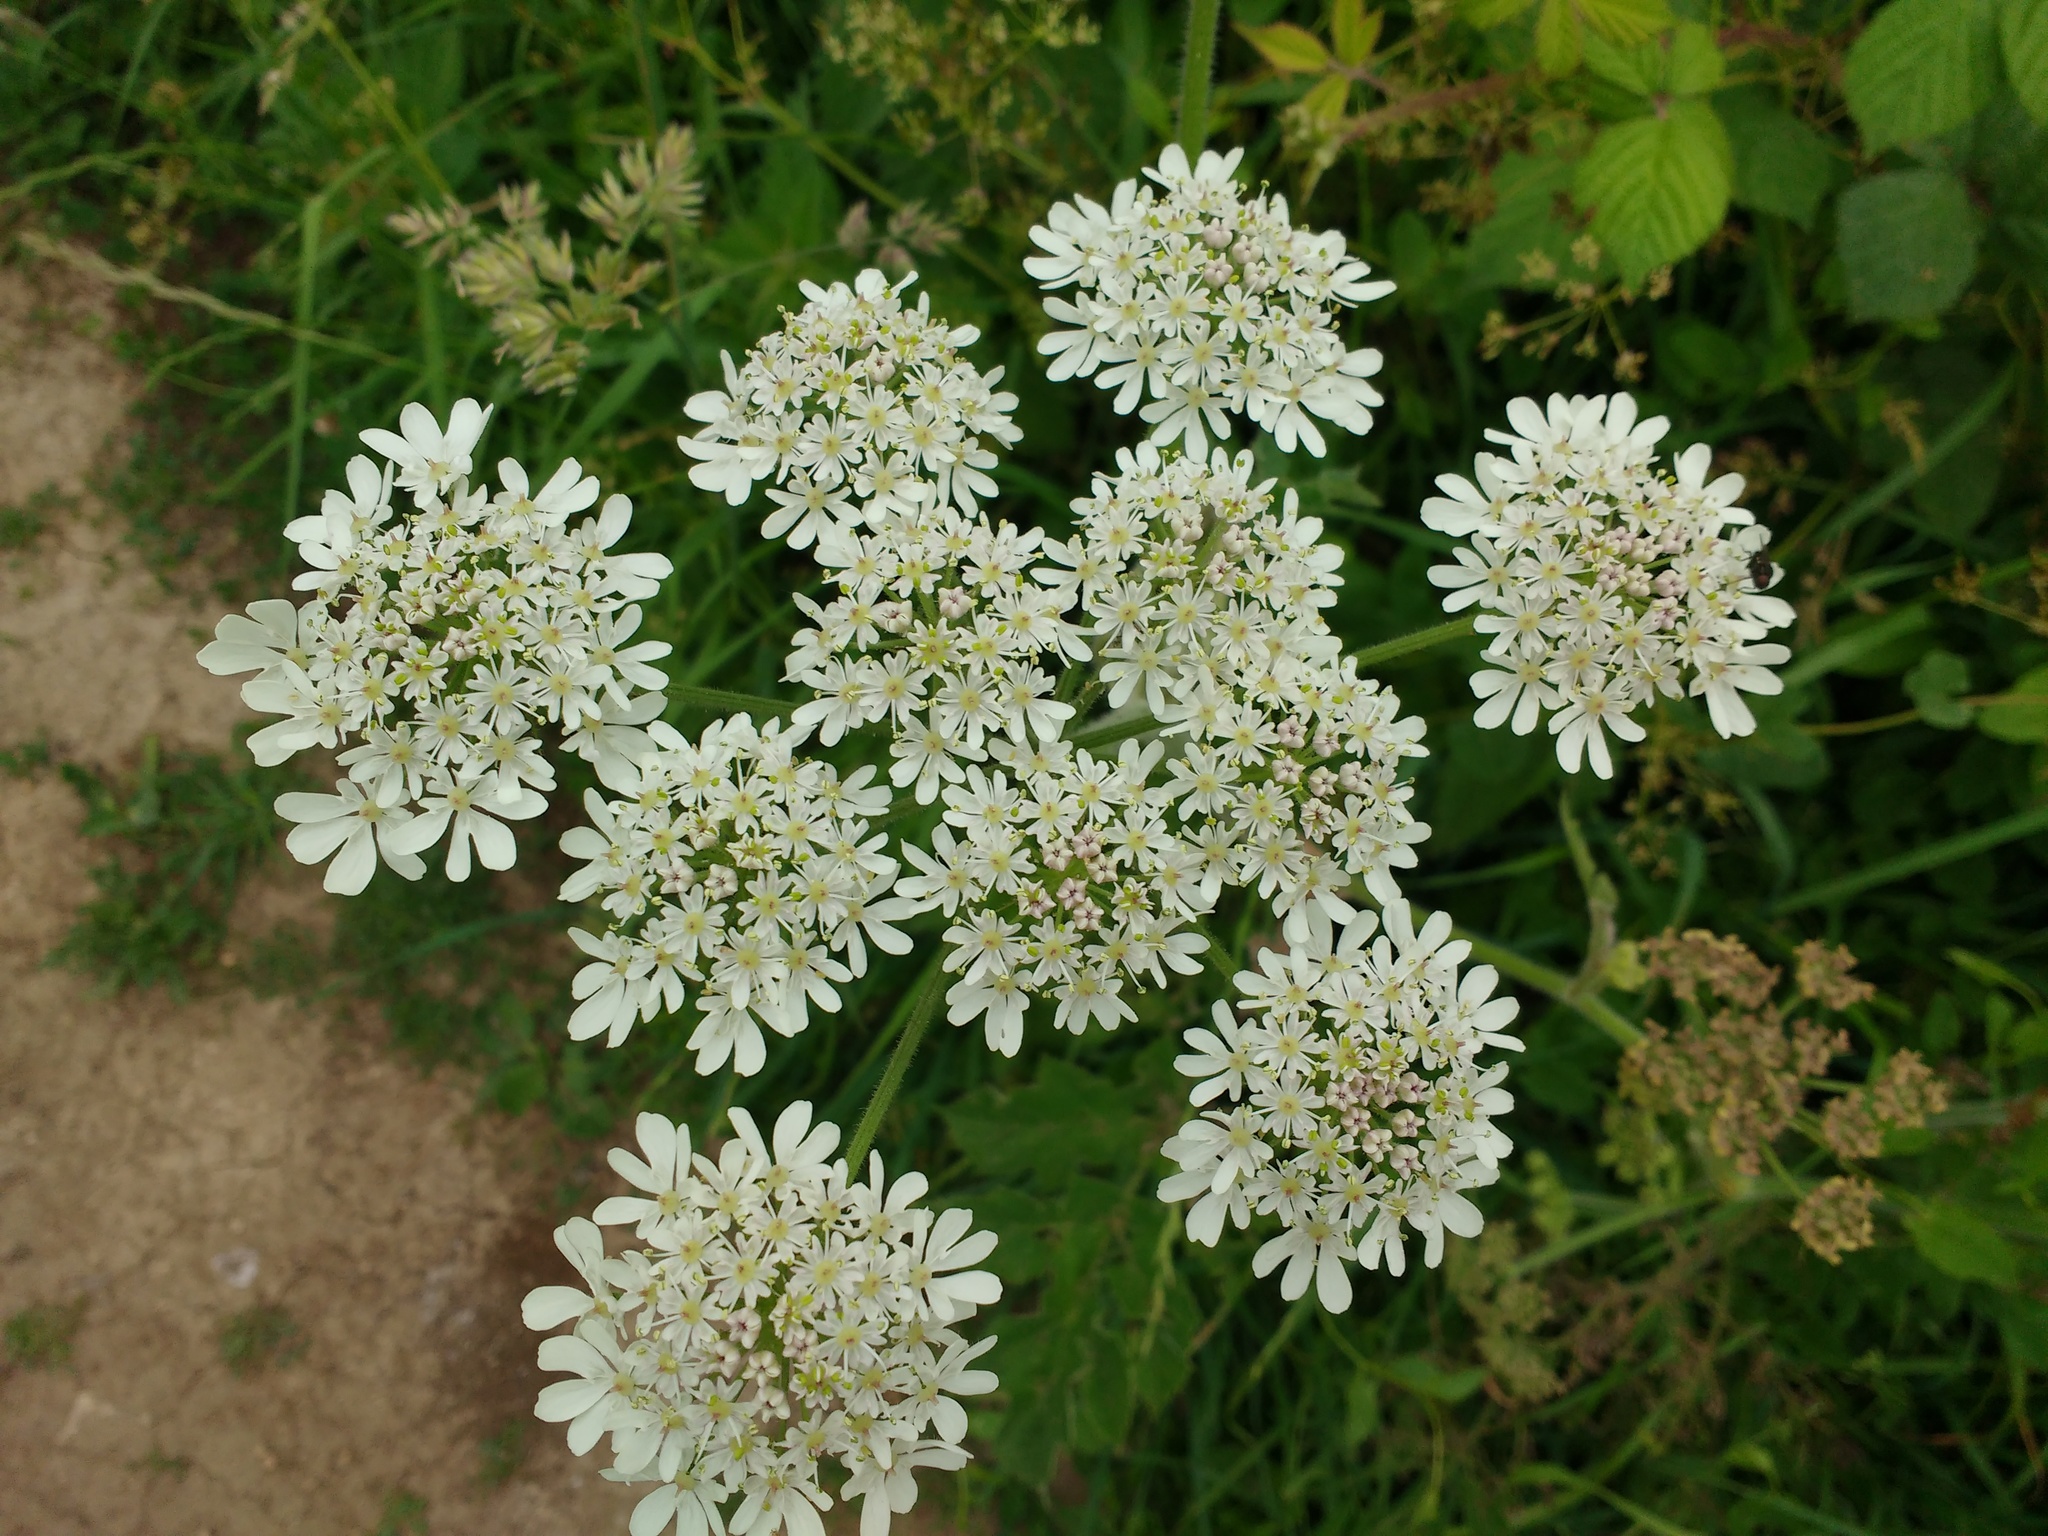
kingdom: Plantae
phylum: Tracheophyta
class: Magnoliopsida
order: Apiales
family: Apiaceae
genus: Heracleum
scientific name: Heracleum sphondylium
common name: Hogweed
